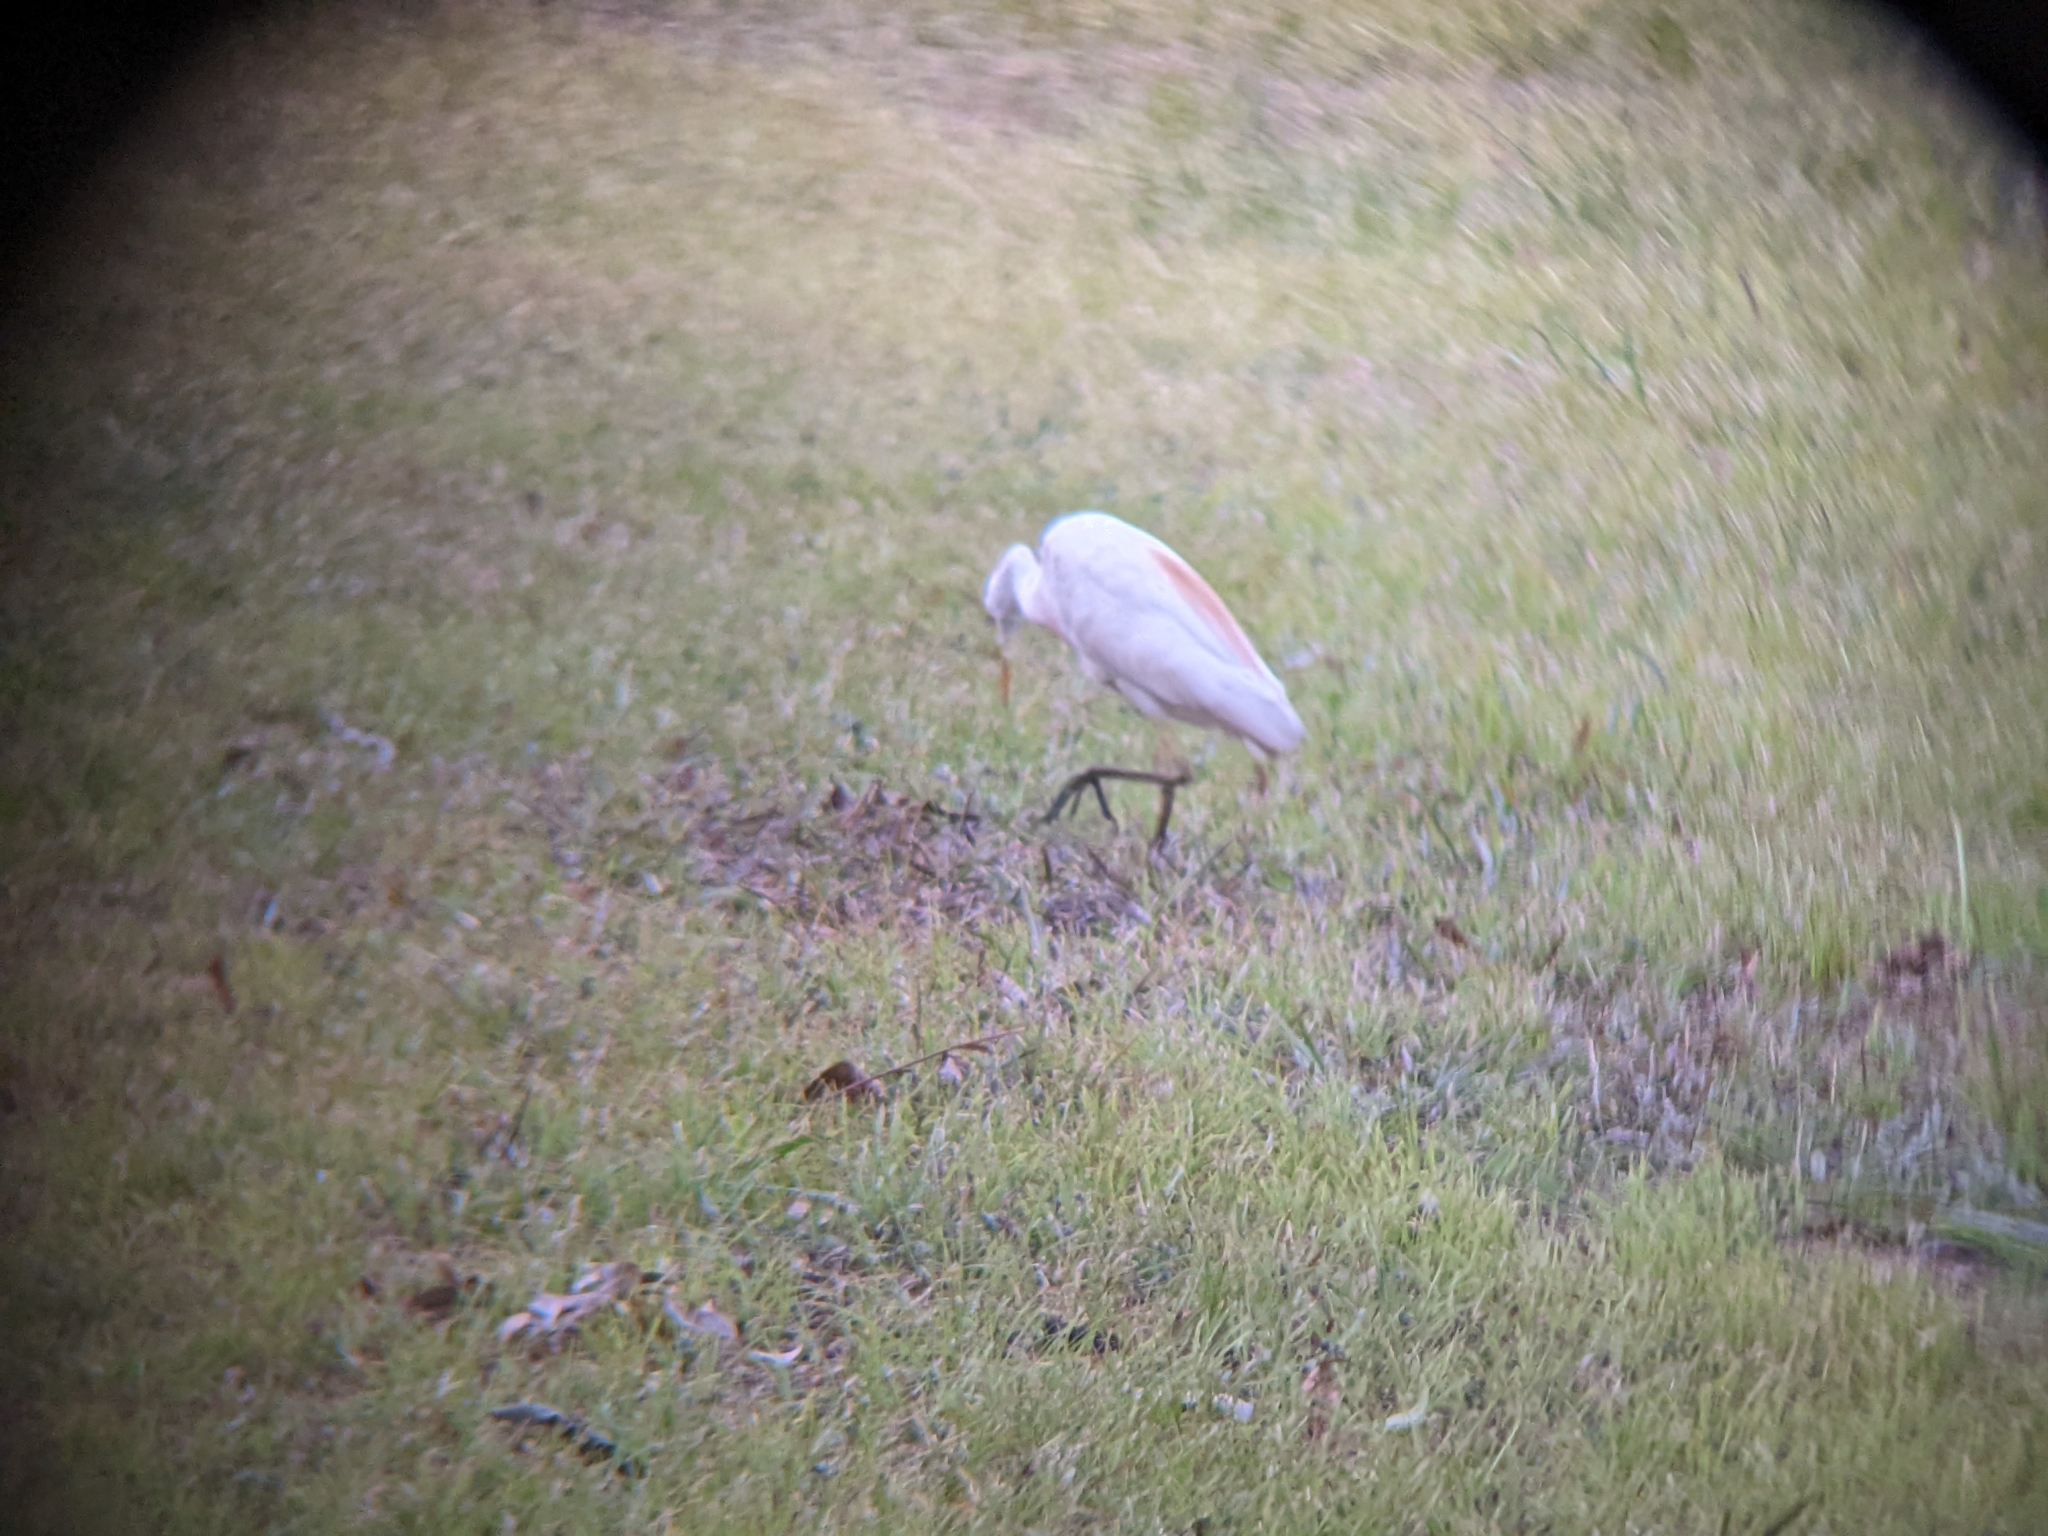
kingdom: Animalia
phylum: Chordata
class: Aves
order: Pelecaniformes
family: Ardeidae
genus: Bubulcus
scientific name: Bubulcus ibis
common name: Cattle egret
